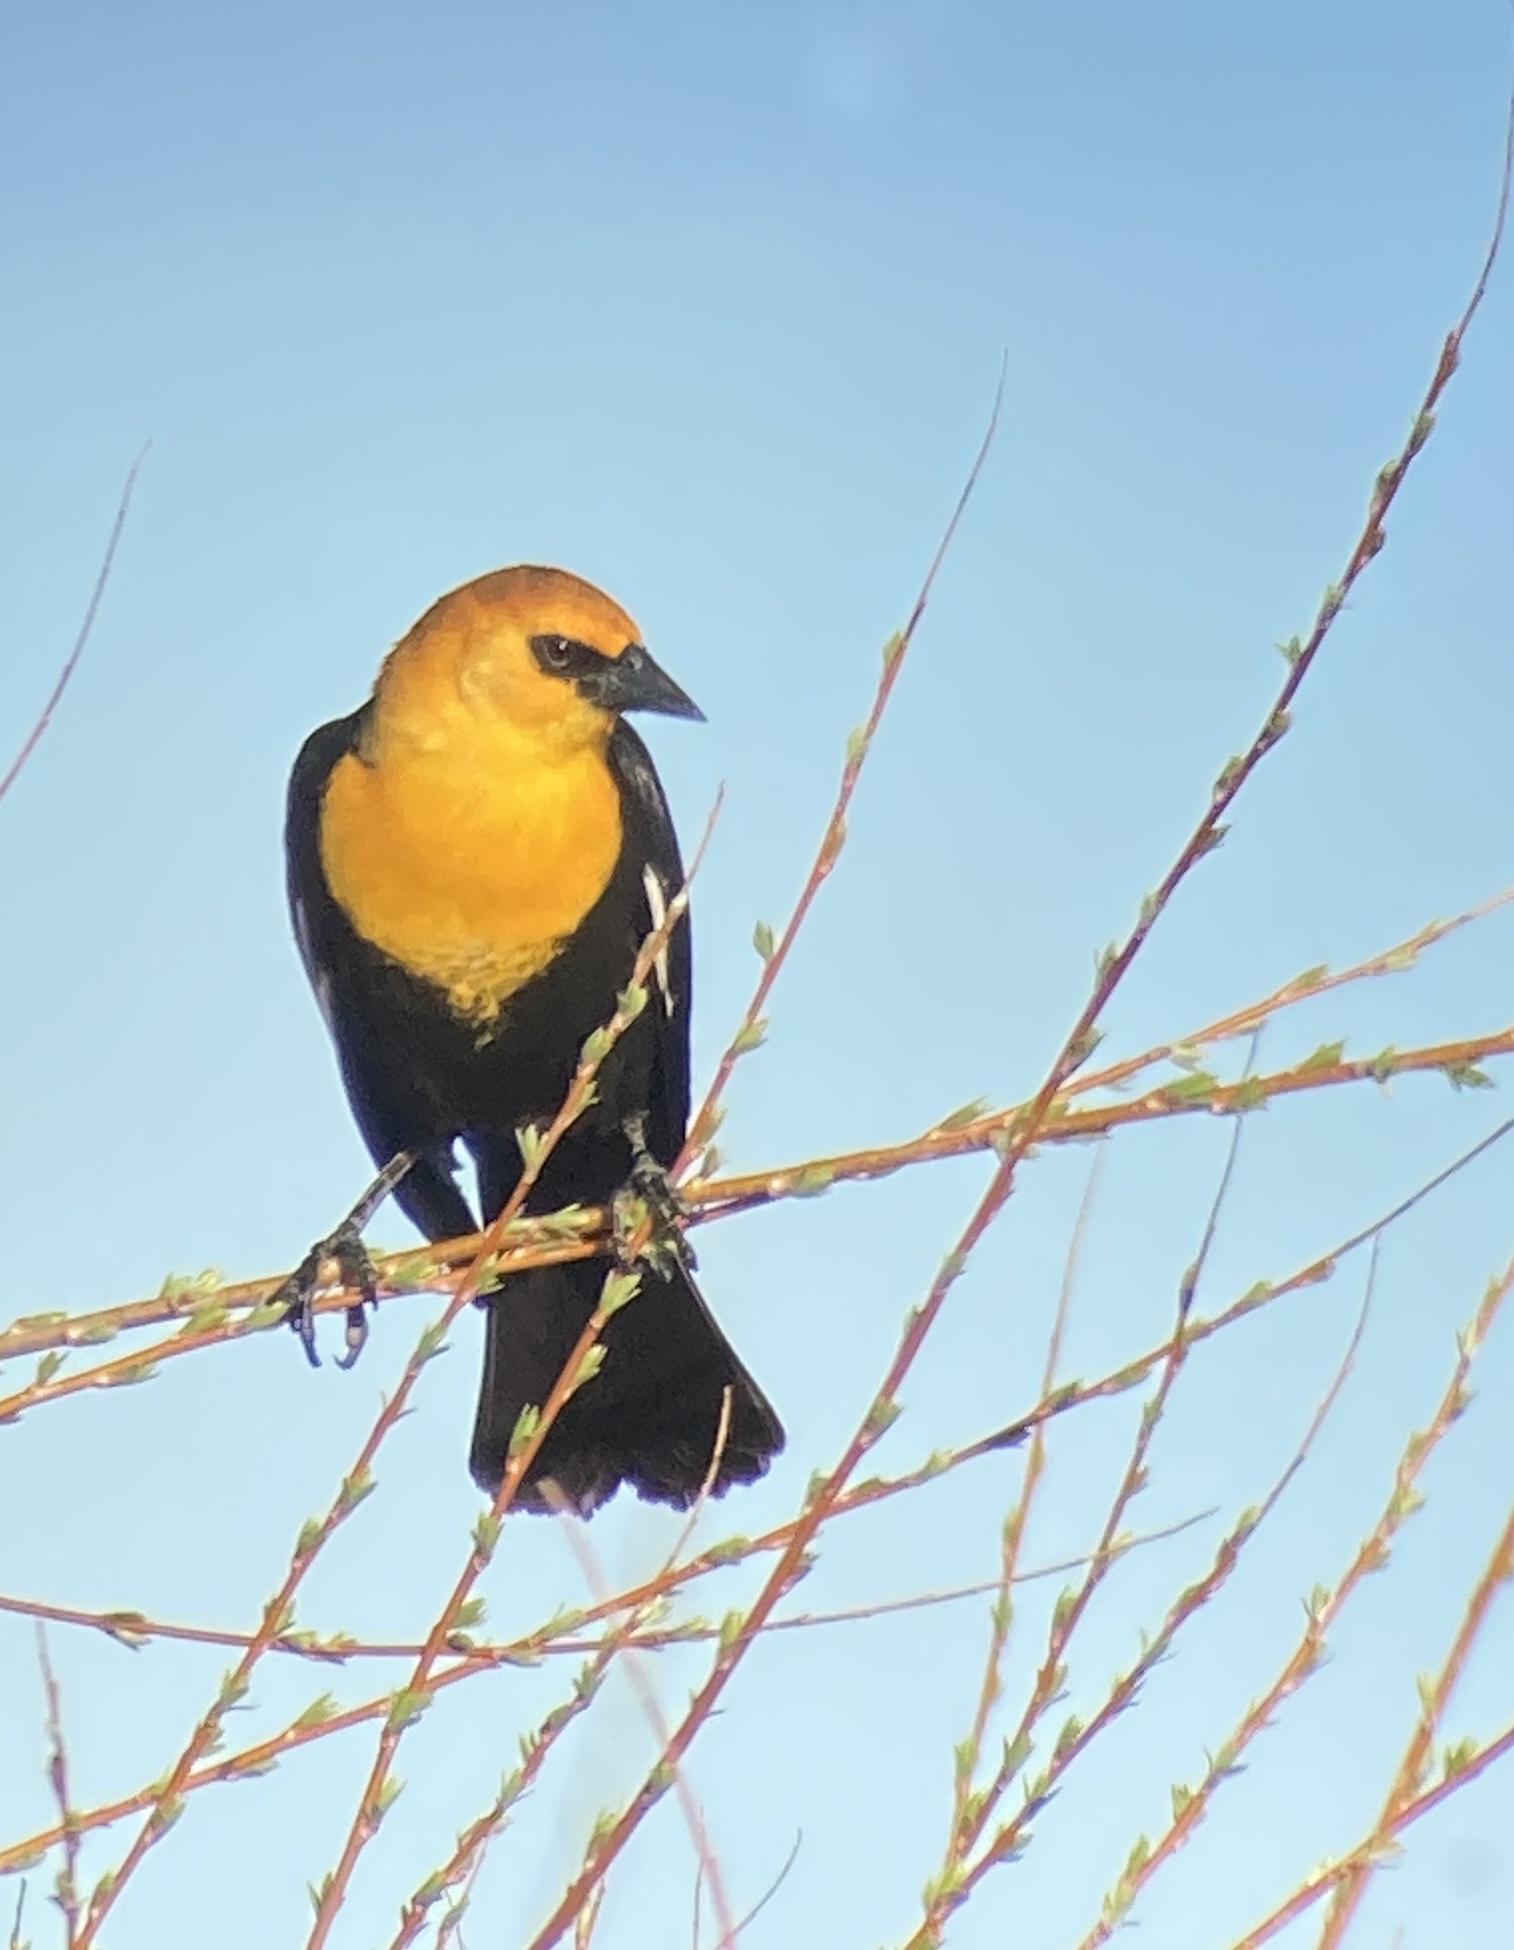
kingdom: Animalia
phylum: Chordata
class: Aves
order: Passeriformes
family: Icteridae
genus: Xanthocephalus
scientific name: Xanthocephalus xanthocephalus
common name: Yellow-headed blackbird
